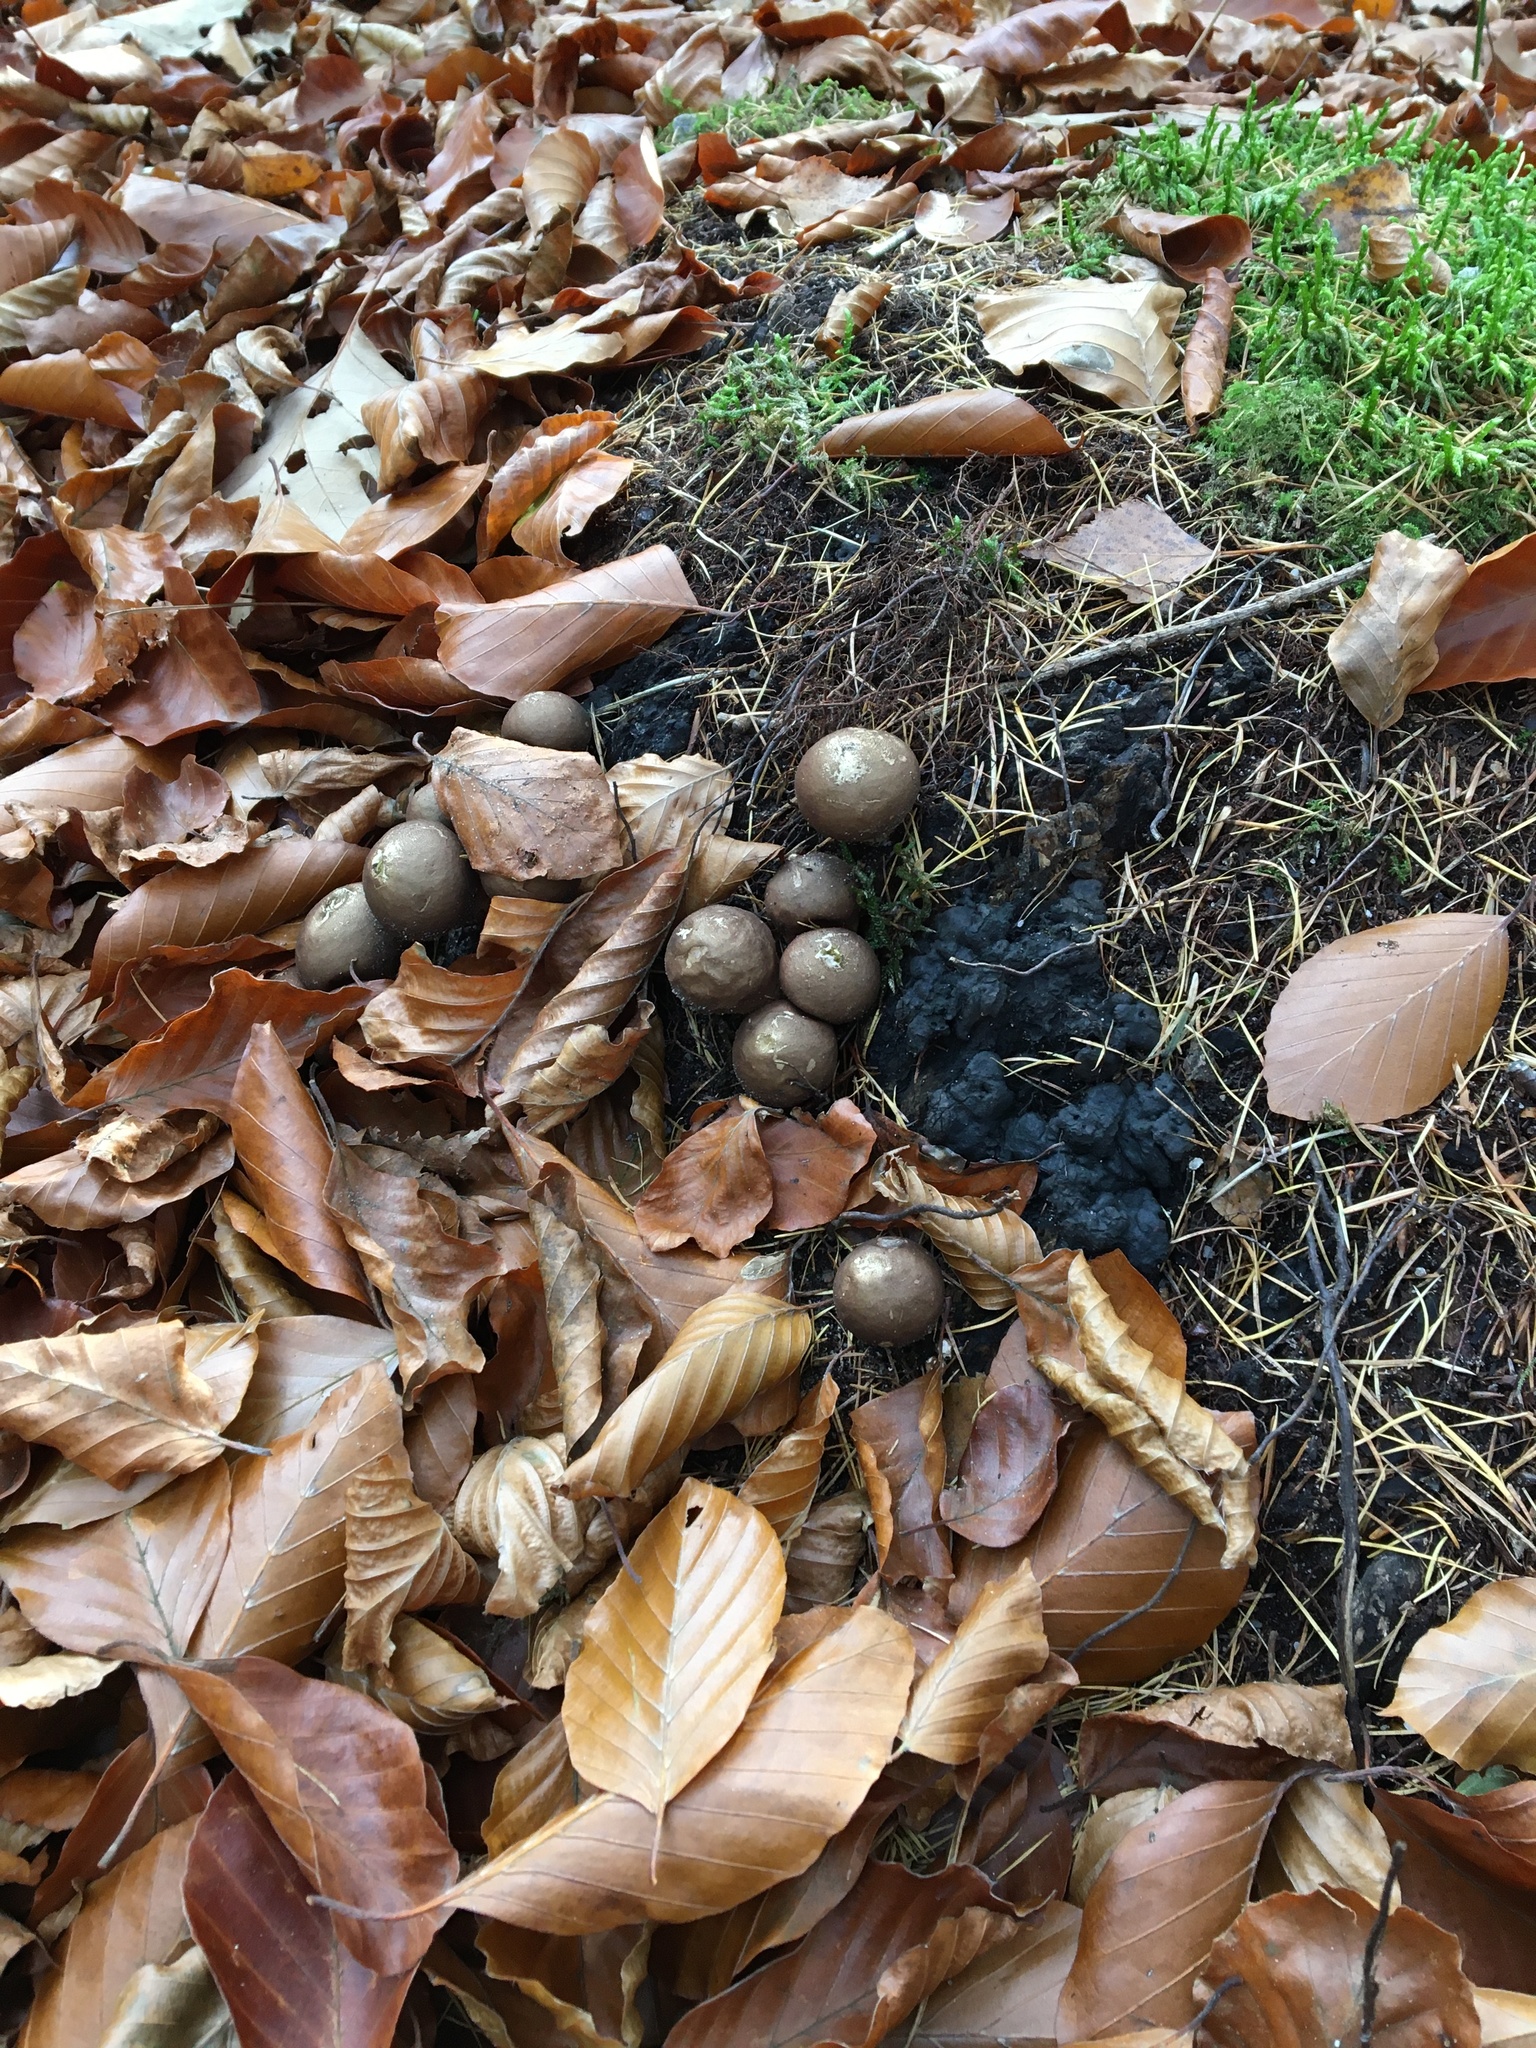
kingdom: Fungi
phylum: Basidiomycota
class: Agaricomycetes
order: Agaricales
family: Lycoperdaceae
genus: Apioperdon
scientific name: Apioperdon pyriforme
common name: Pear-shaped puffball
